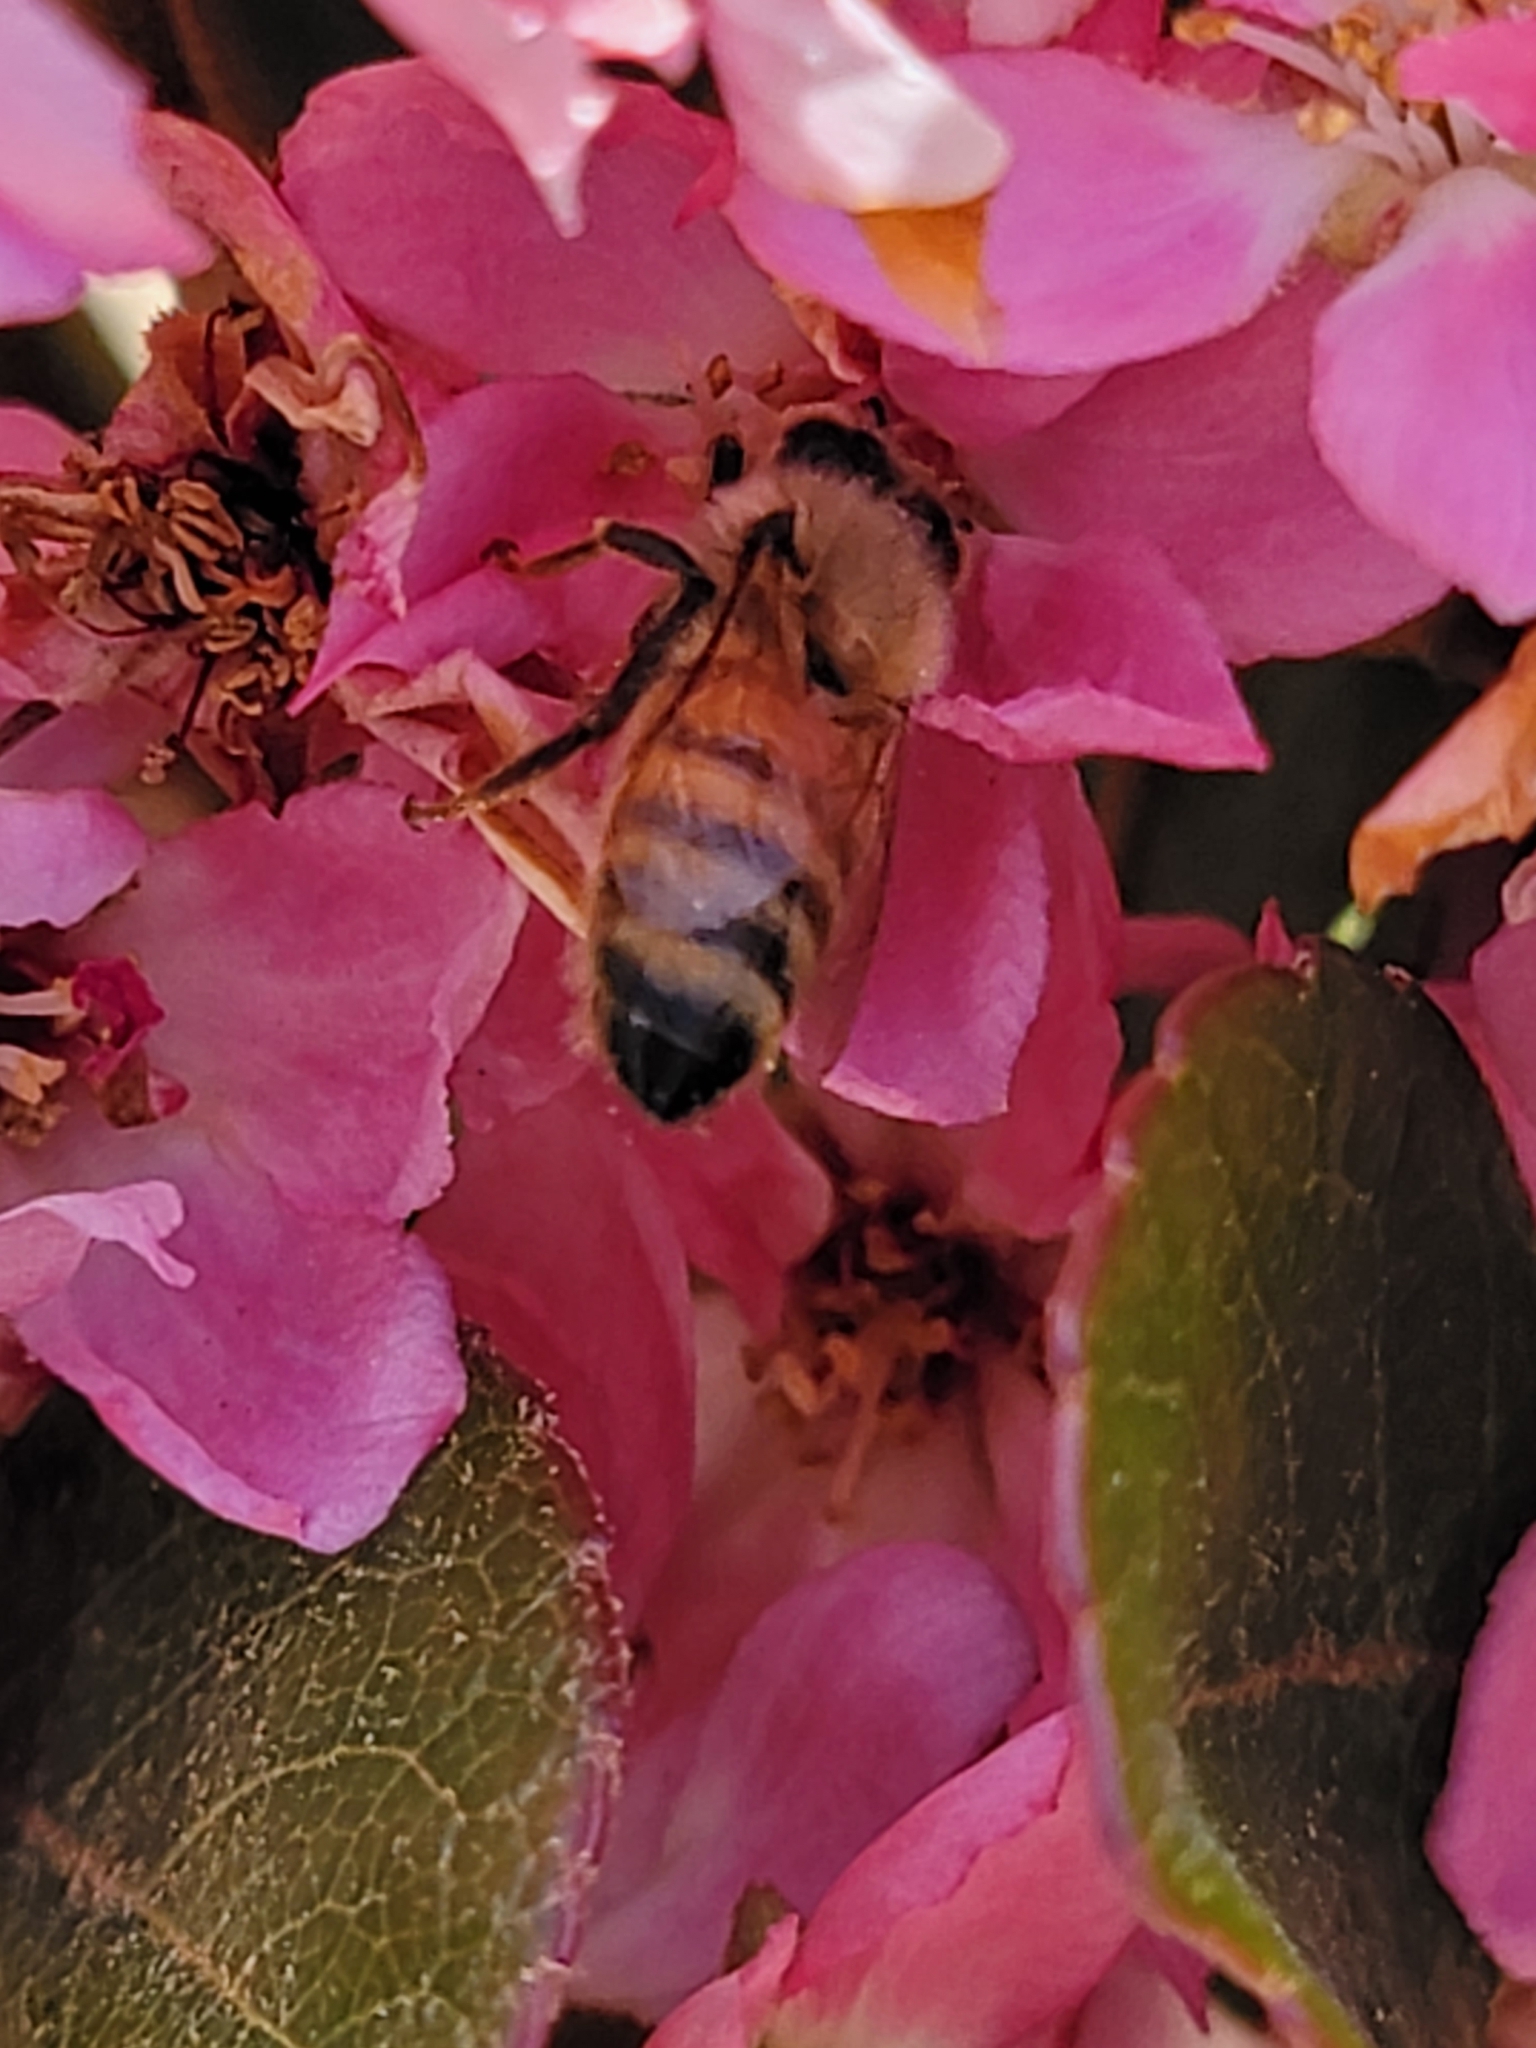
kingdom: Animalia
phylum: Arthropoda
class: Insecta
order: Hymenoptera
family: Apidae
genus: Apis
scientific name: Apis mellifera
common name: Honey bee
